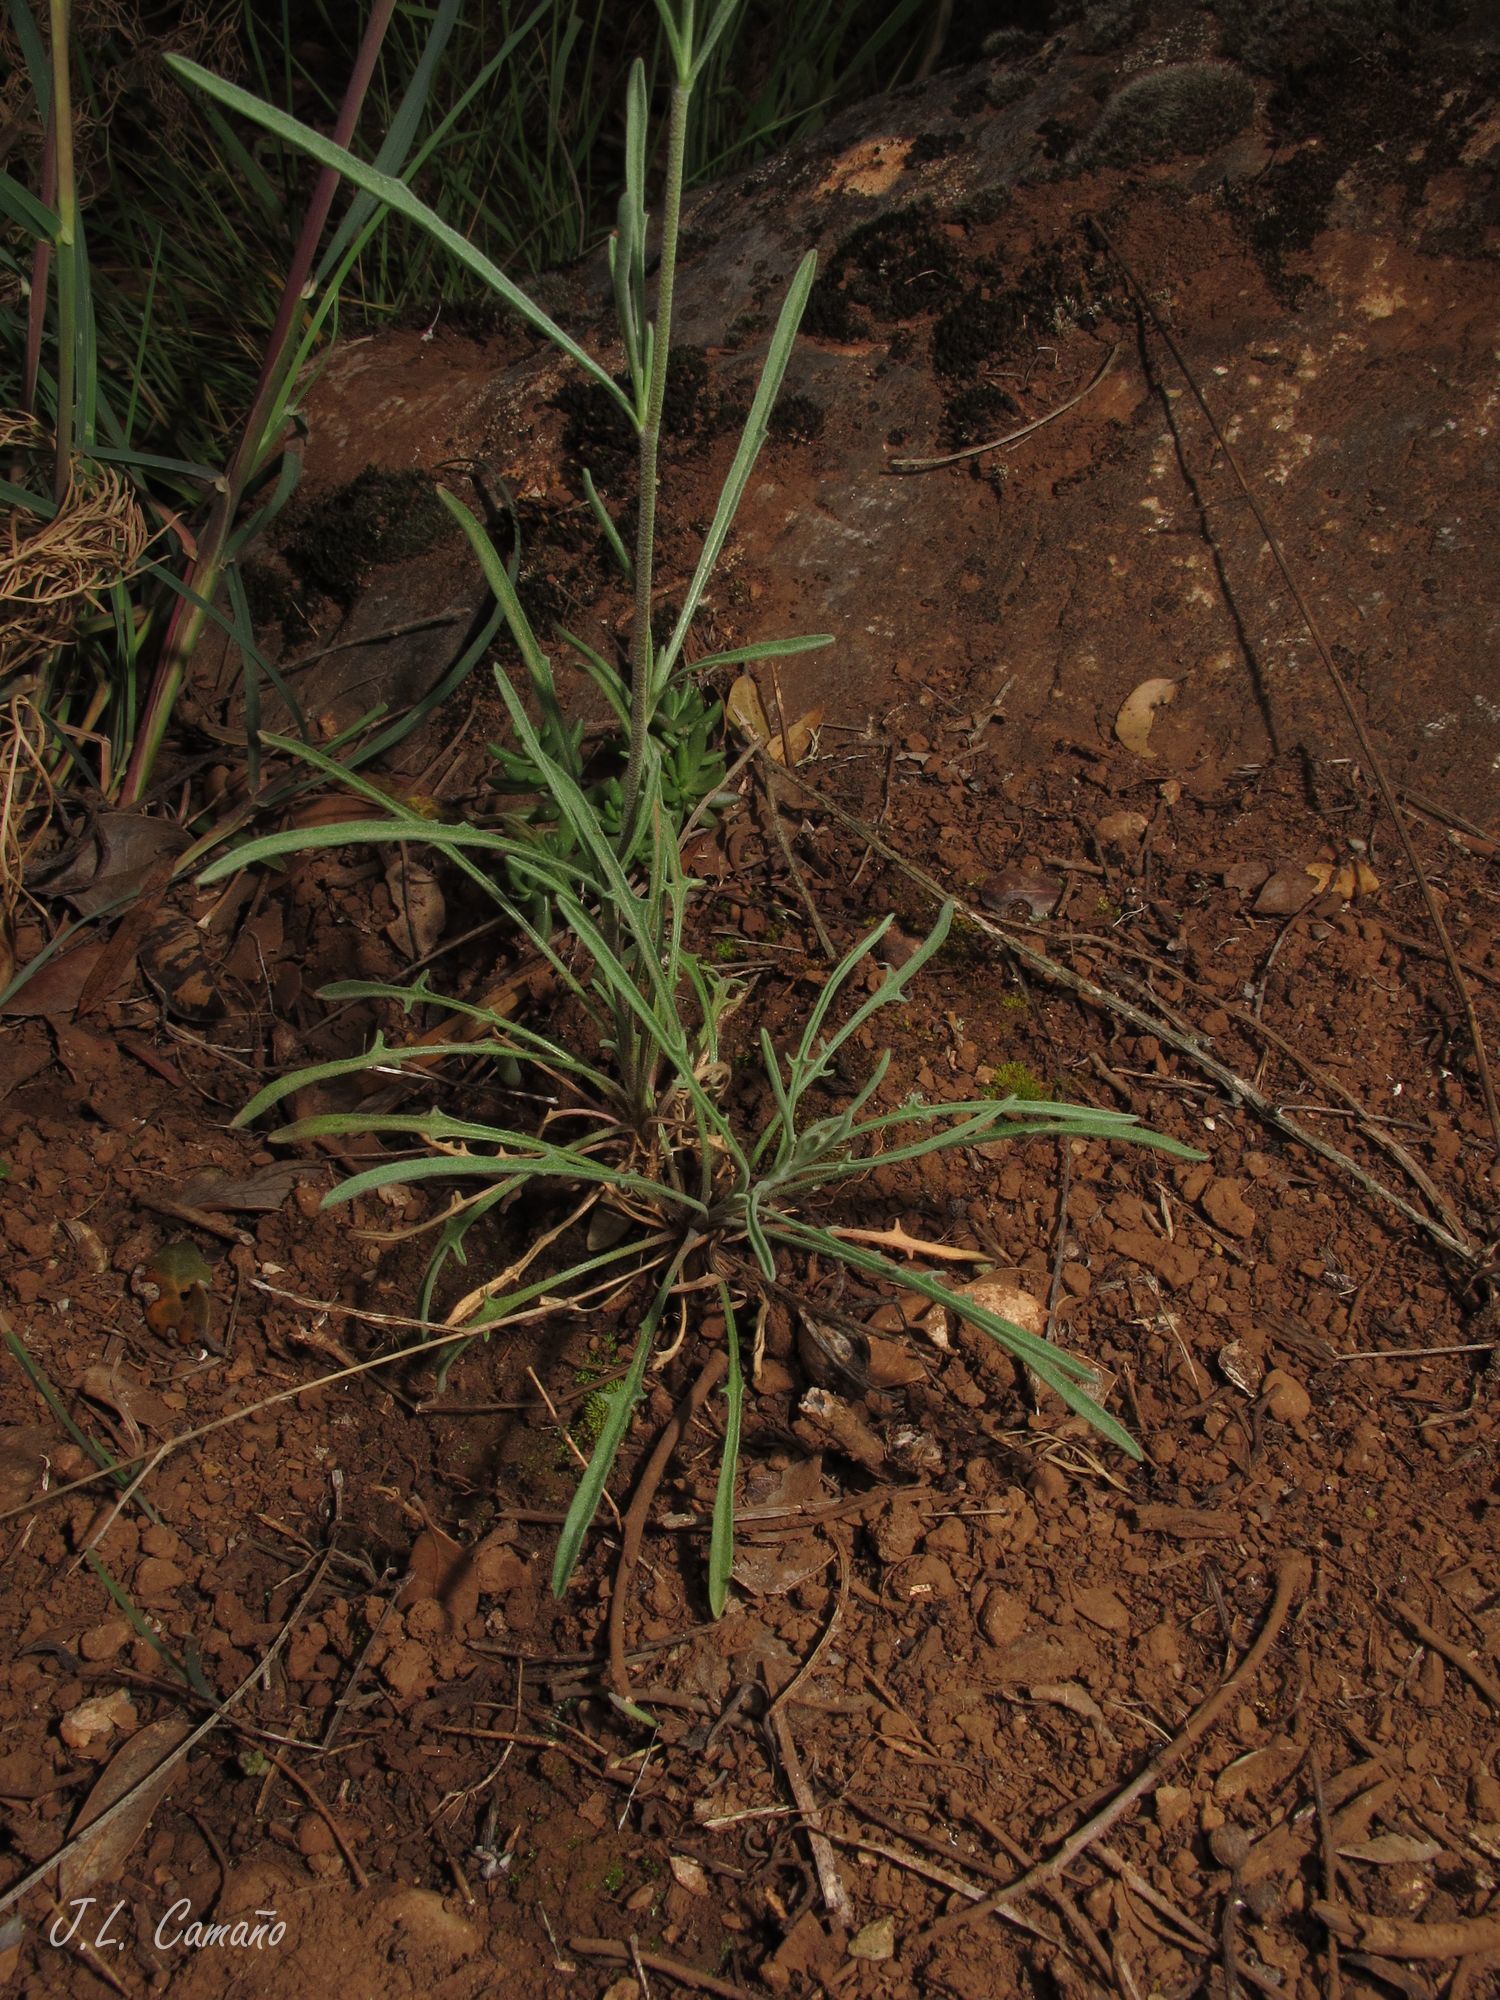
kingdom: Plantae
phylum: Tracheophyta
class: Magnoliopsida
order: Brassicales
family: Brassicaceae
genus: Matthiola
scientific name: Matthiola fruticulosa
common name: Sad stock
